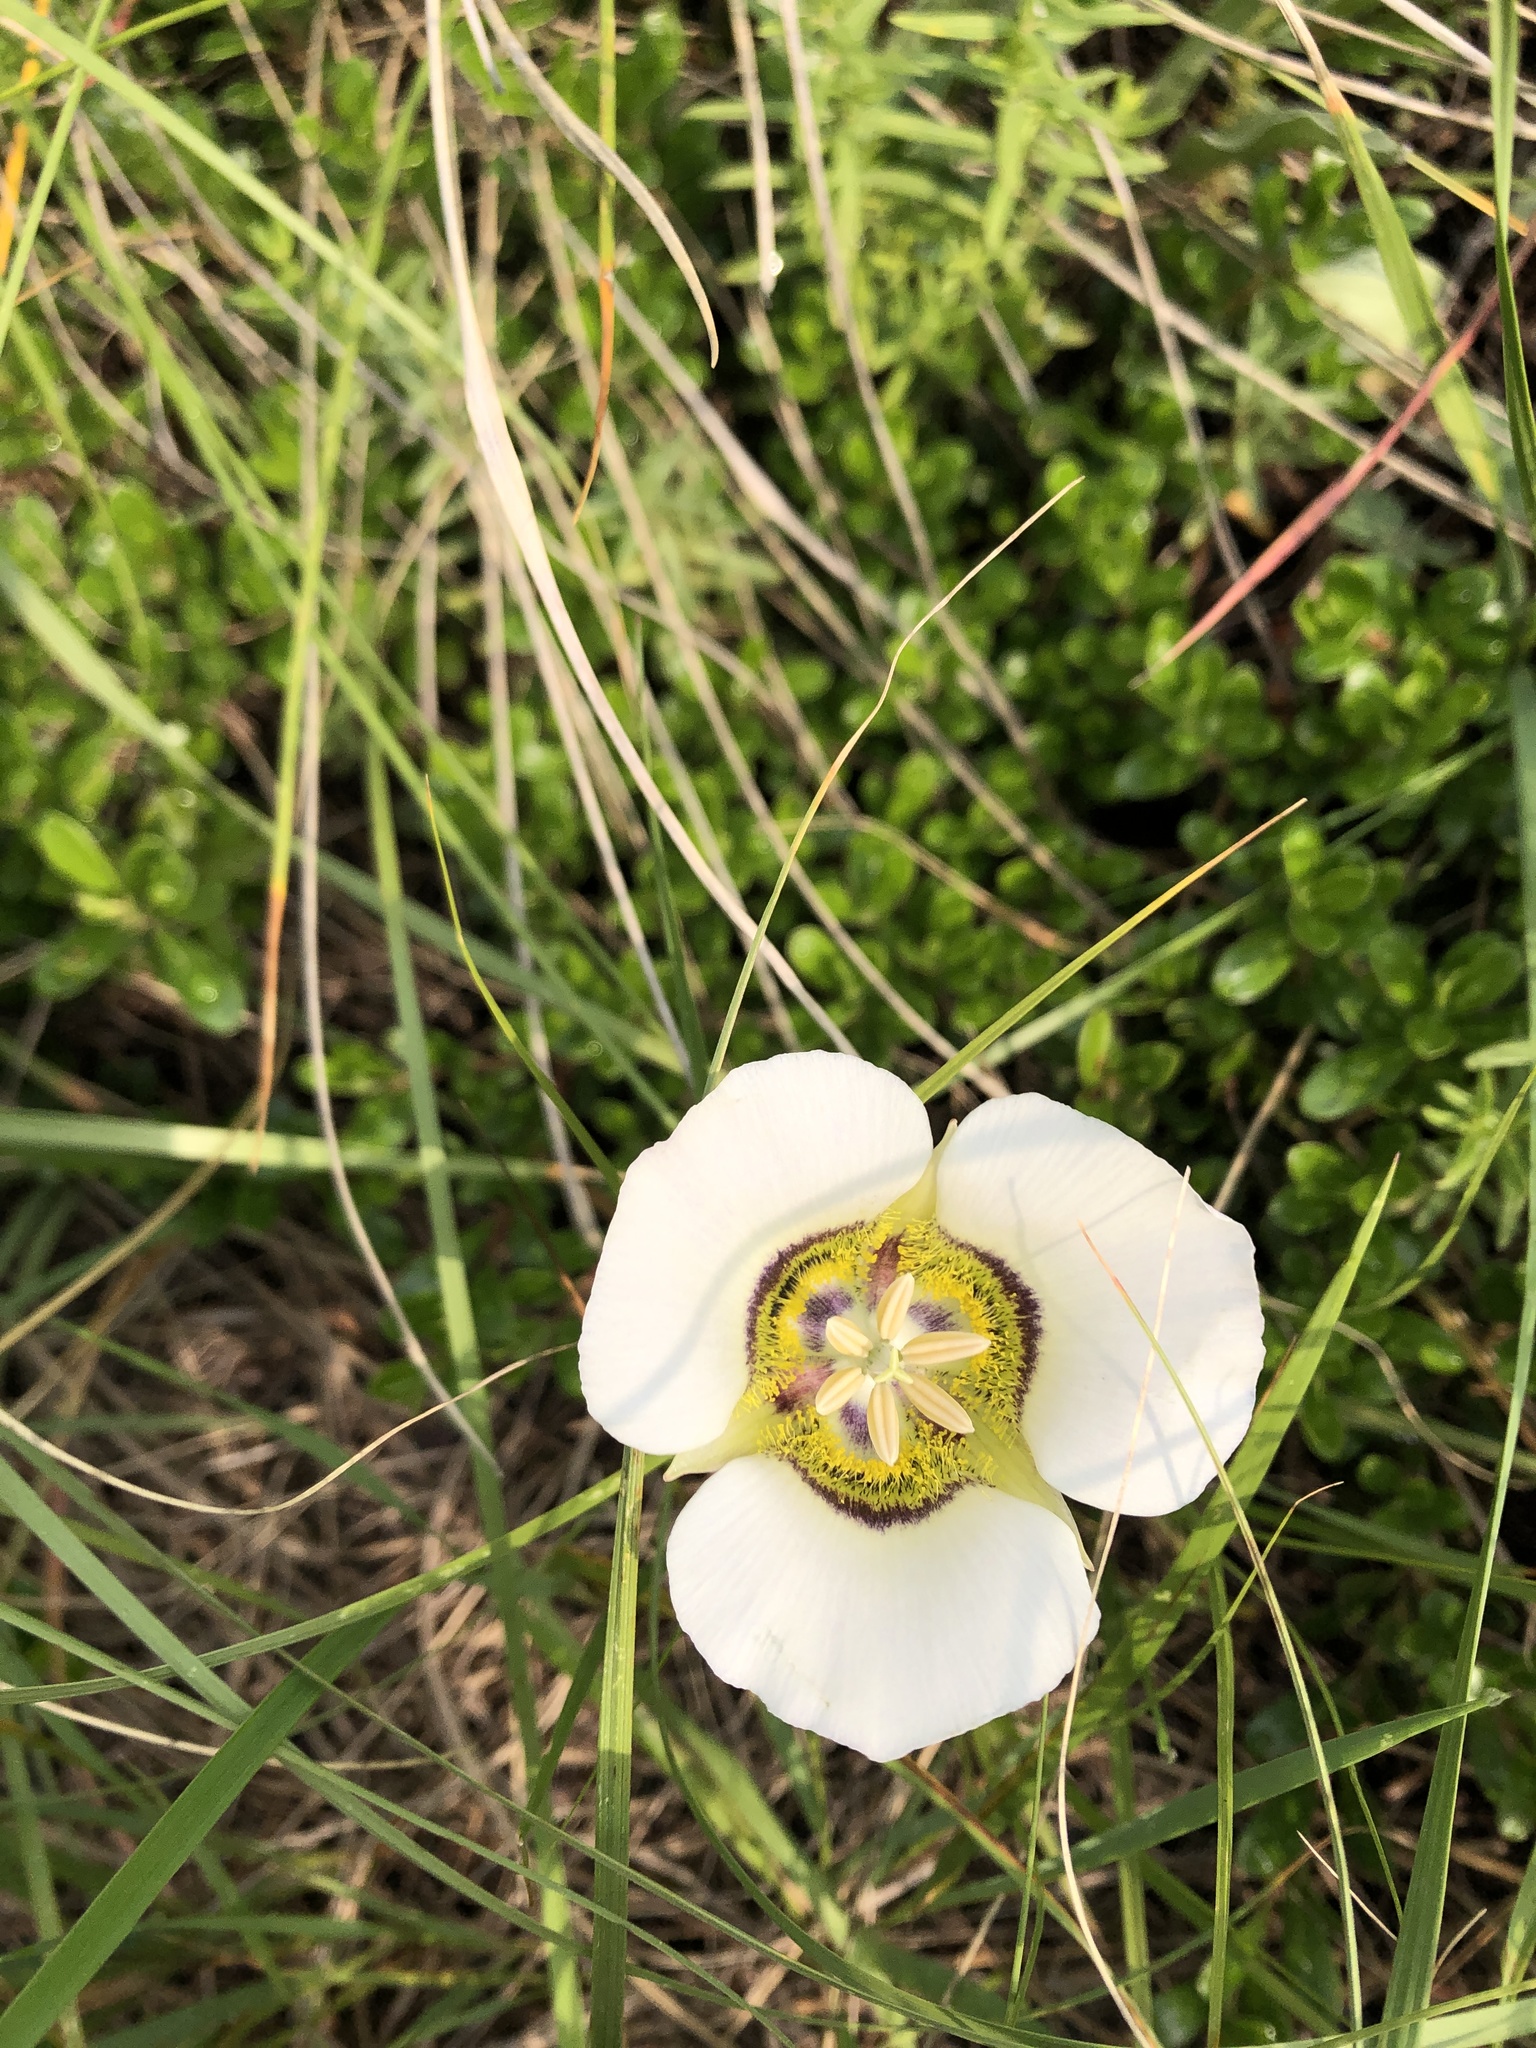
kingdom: Plantae
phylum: Tracheophyta
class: Liliopsida
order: Liliales
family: Liliaceae
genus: Calochortus
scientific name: Calochortus gunnisonii
